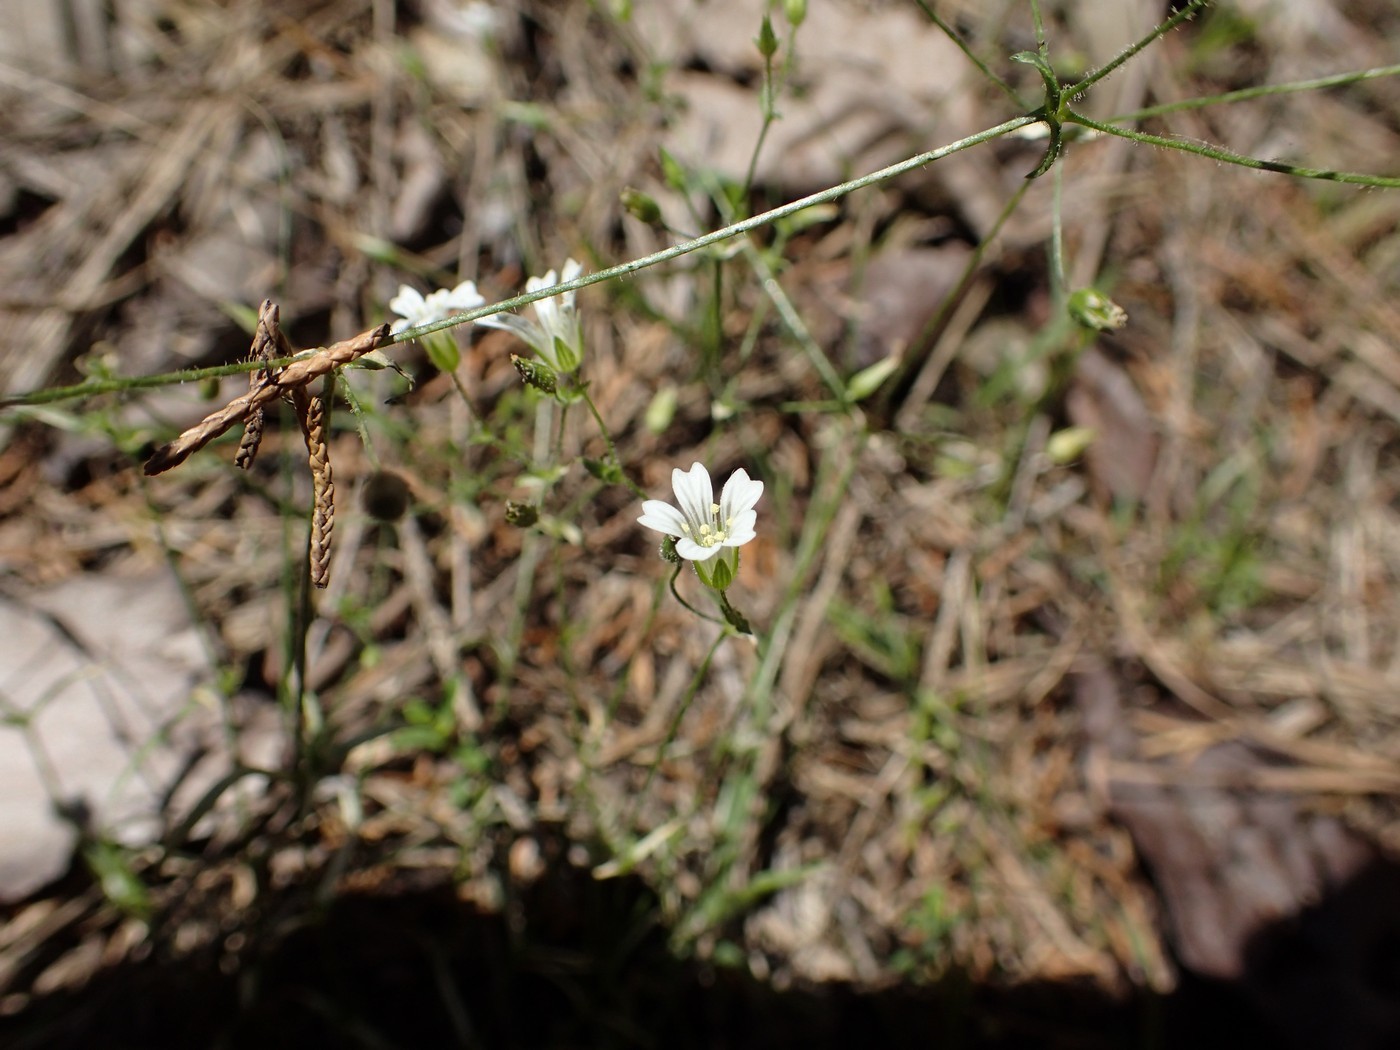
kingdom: Plantae
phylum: Tracheophyta
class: Magnoliopsida
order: Caryophyllales
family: Caryophyllaceae
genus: Mononeuria
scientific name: Mononeuria patula
